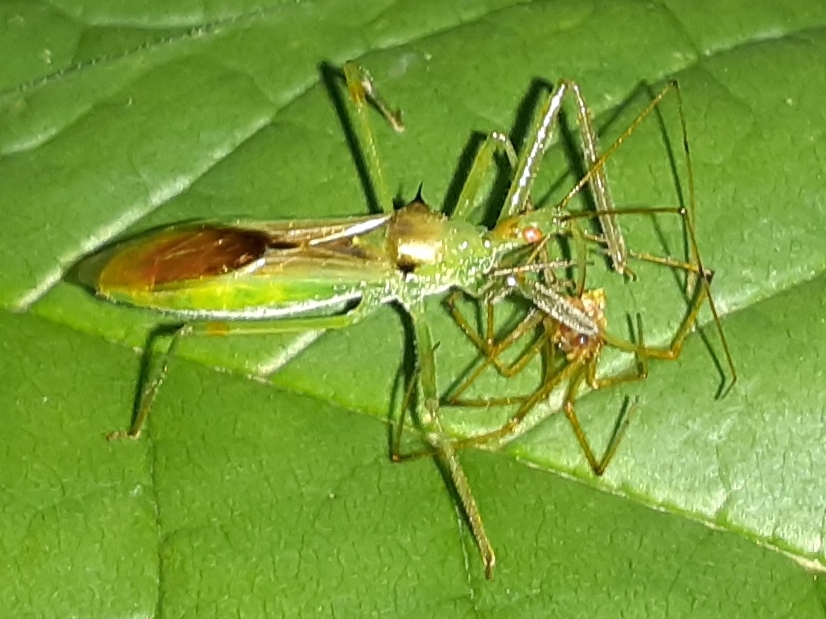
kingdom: Animalia
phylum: Arthropoda
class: Insecta
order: Hemiptera
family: Reduviidae
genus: Zelus
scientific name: Zelus luridus
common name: Pale green assassin bug
